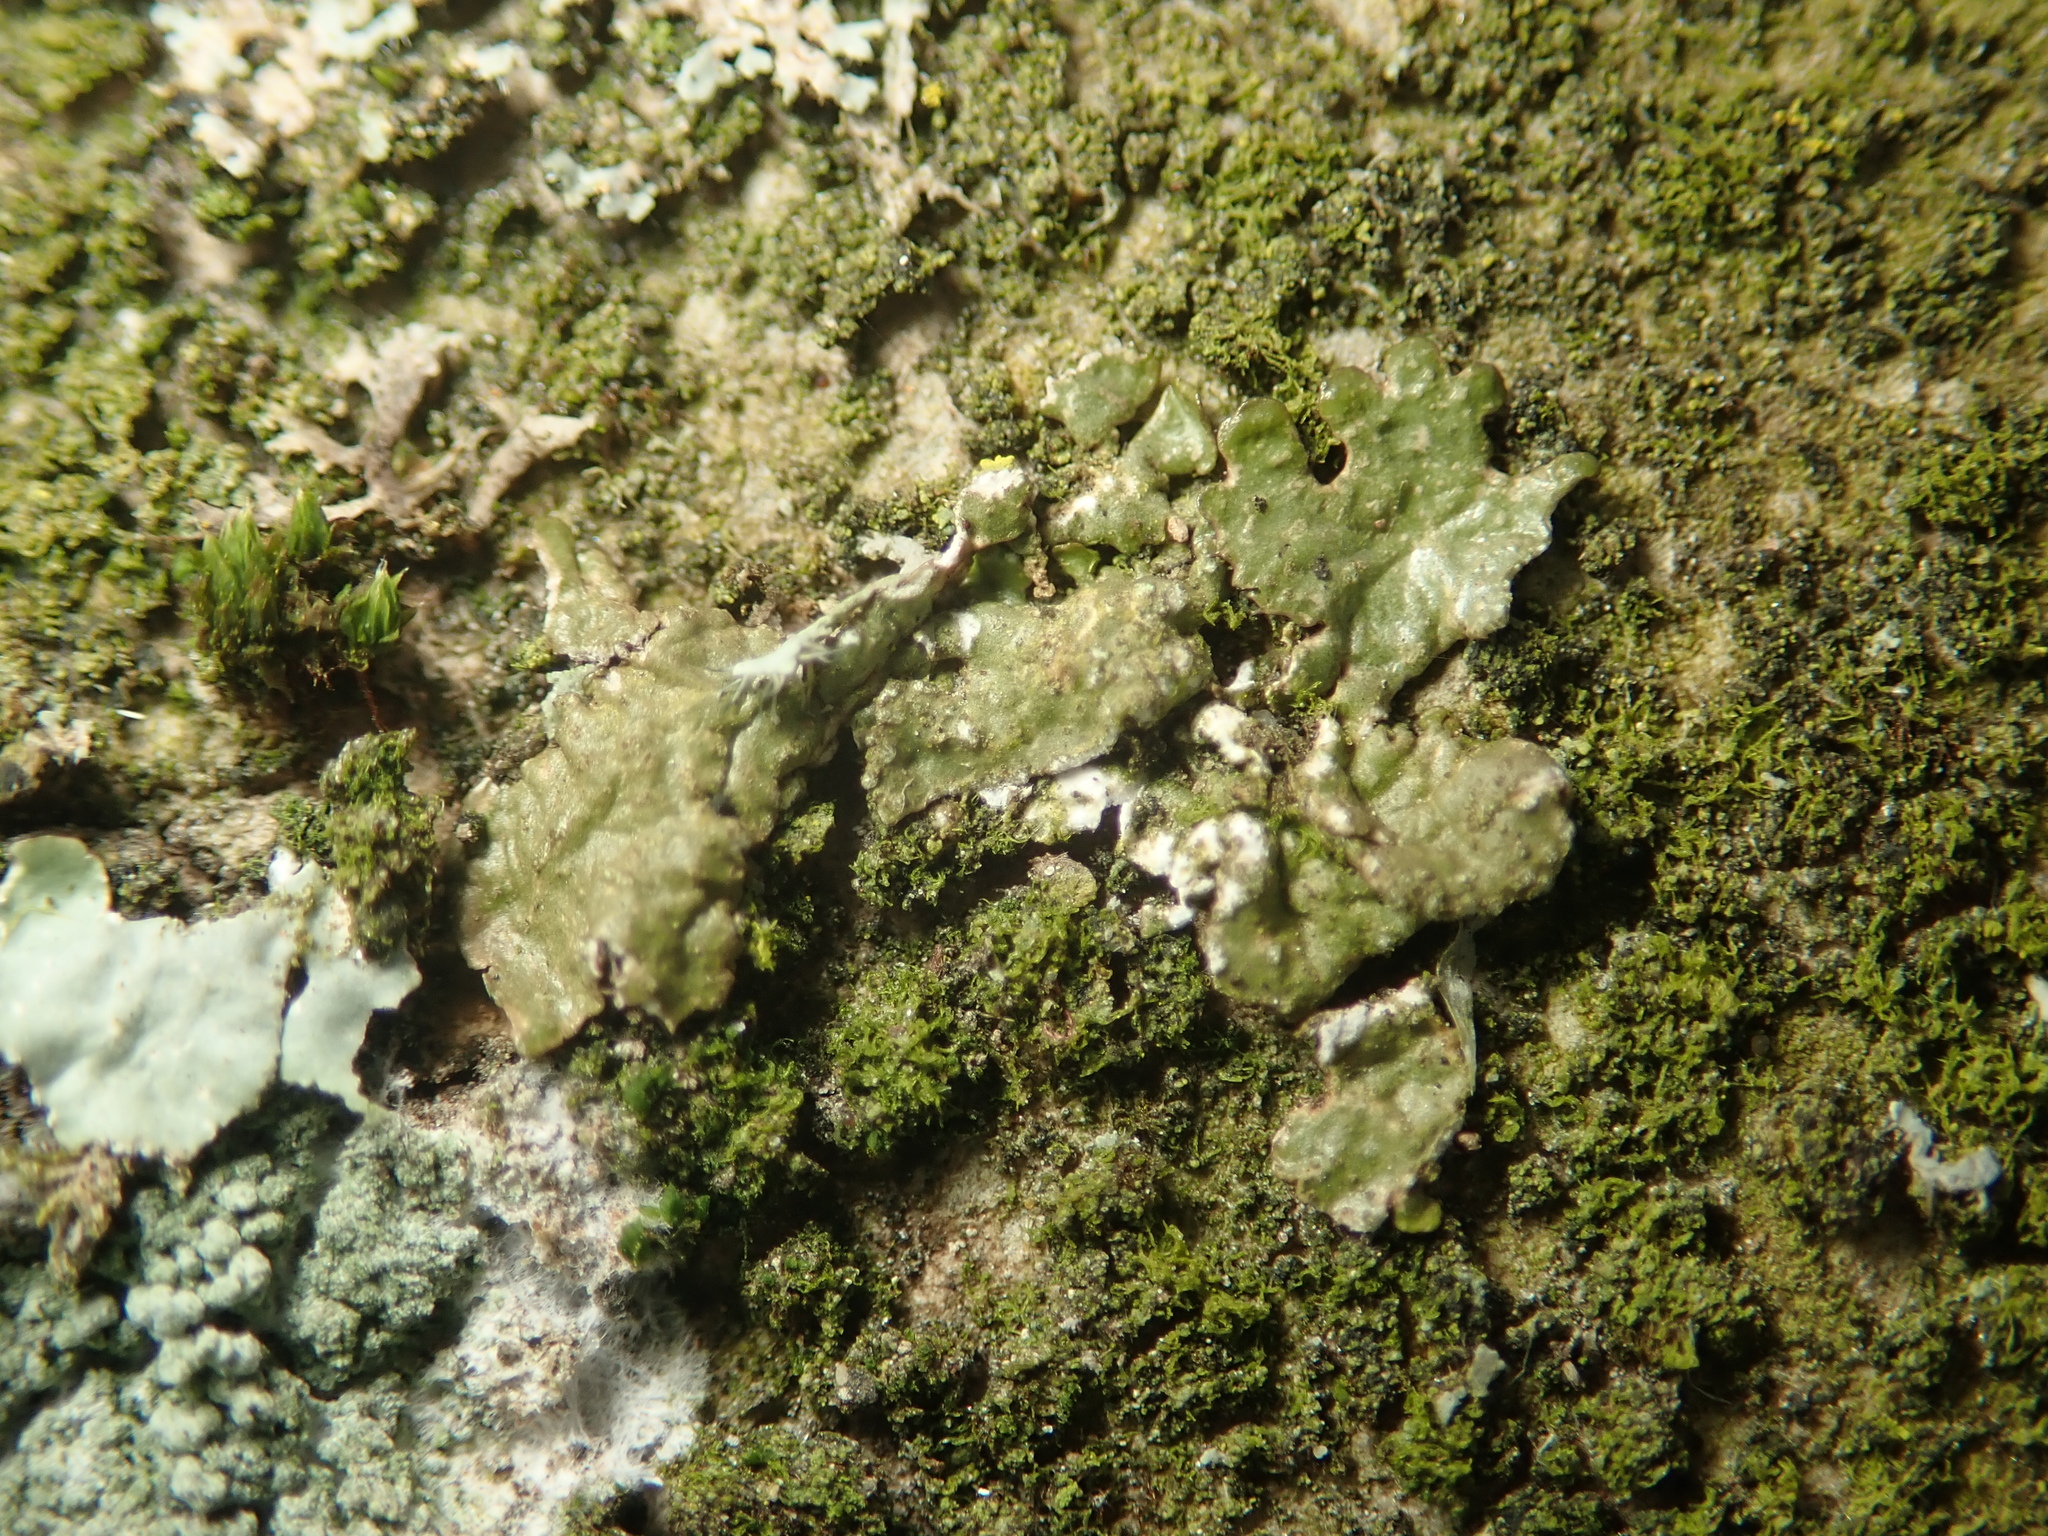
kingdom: Fungi
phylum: Ascomycota
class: Lecanoromycetes
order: Lecanorales
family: Parmeliaceae
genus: Melanelixia
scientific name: Melanelixia subaurifera
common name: Abraded camouflage lichen
